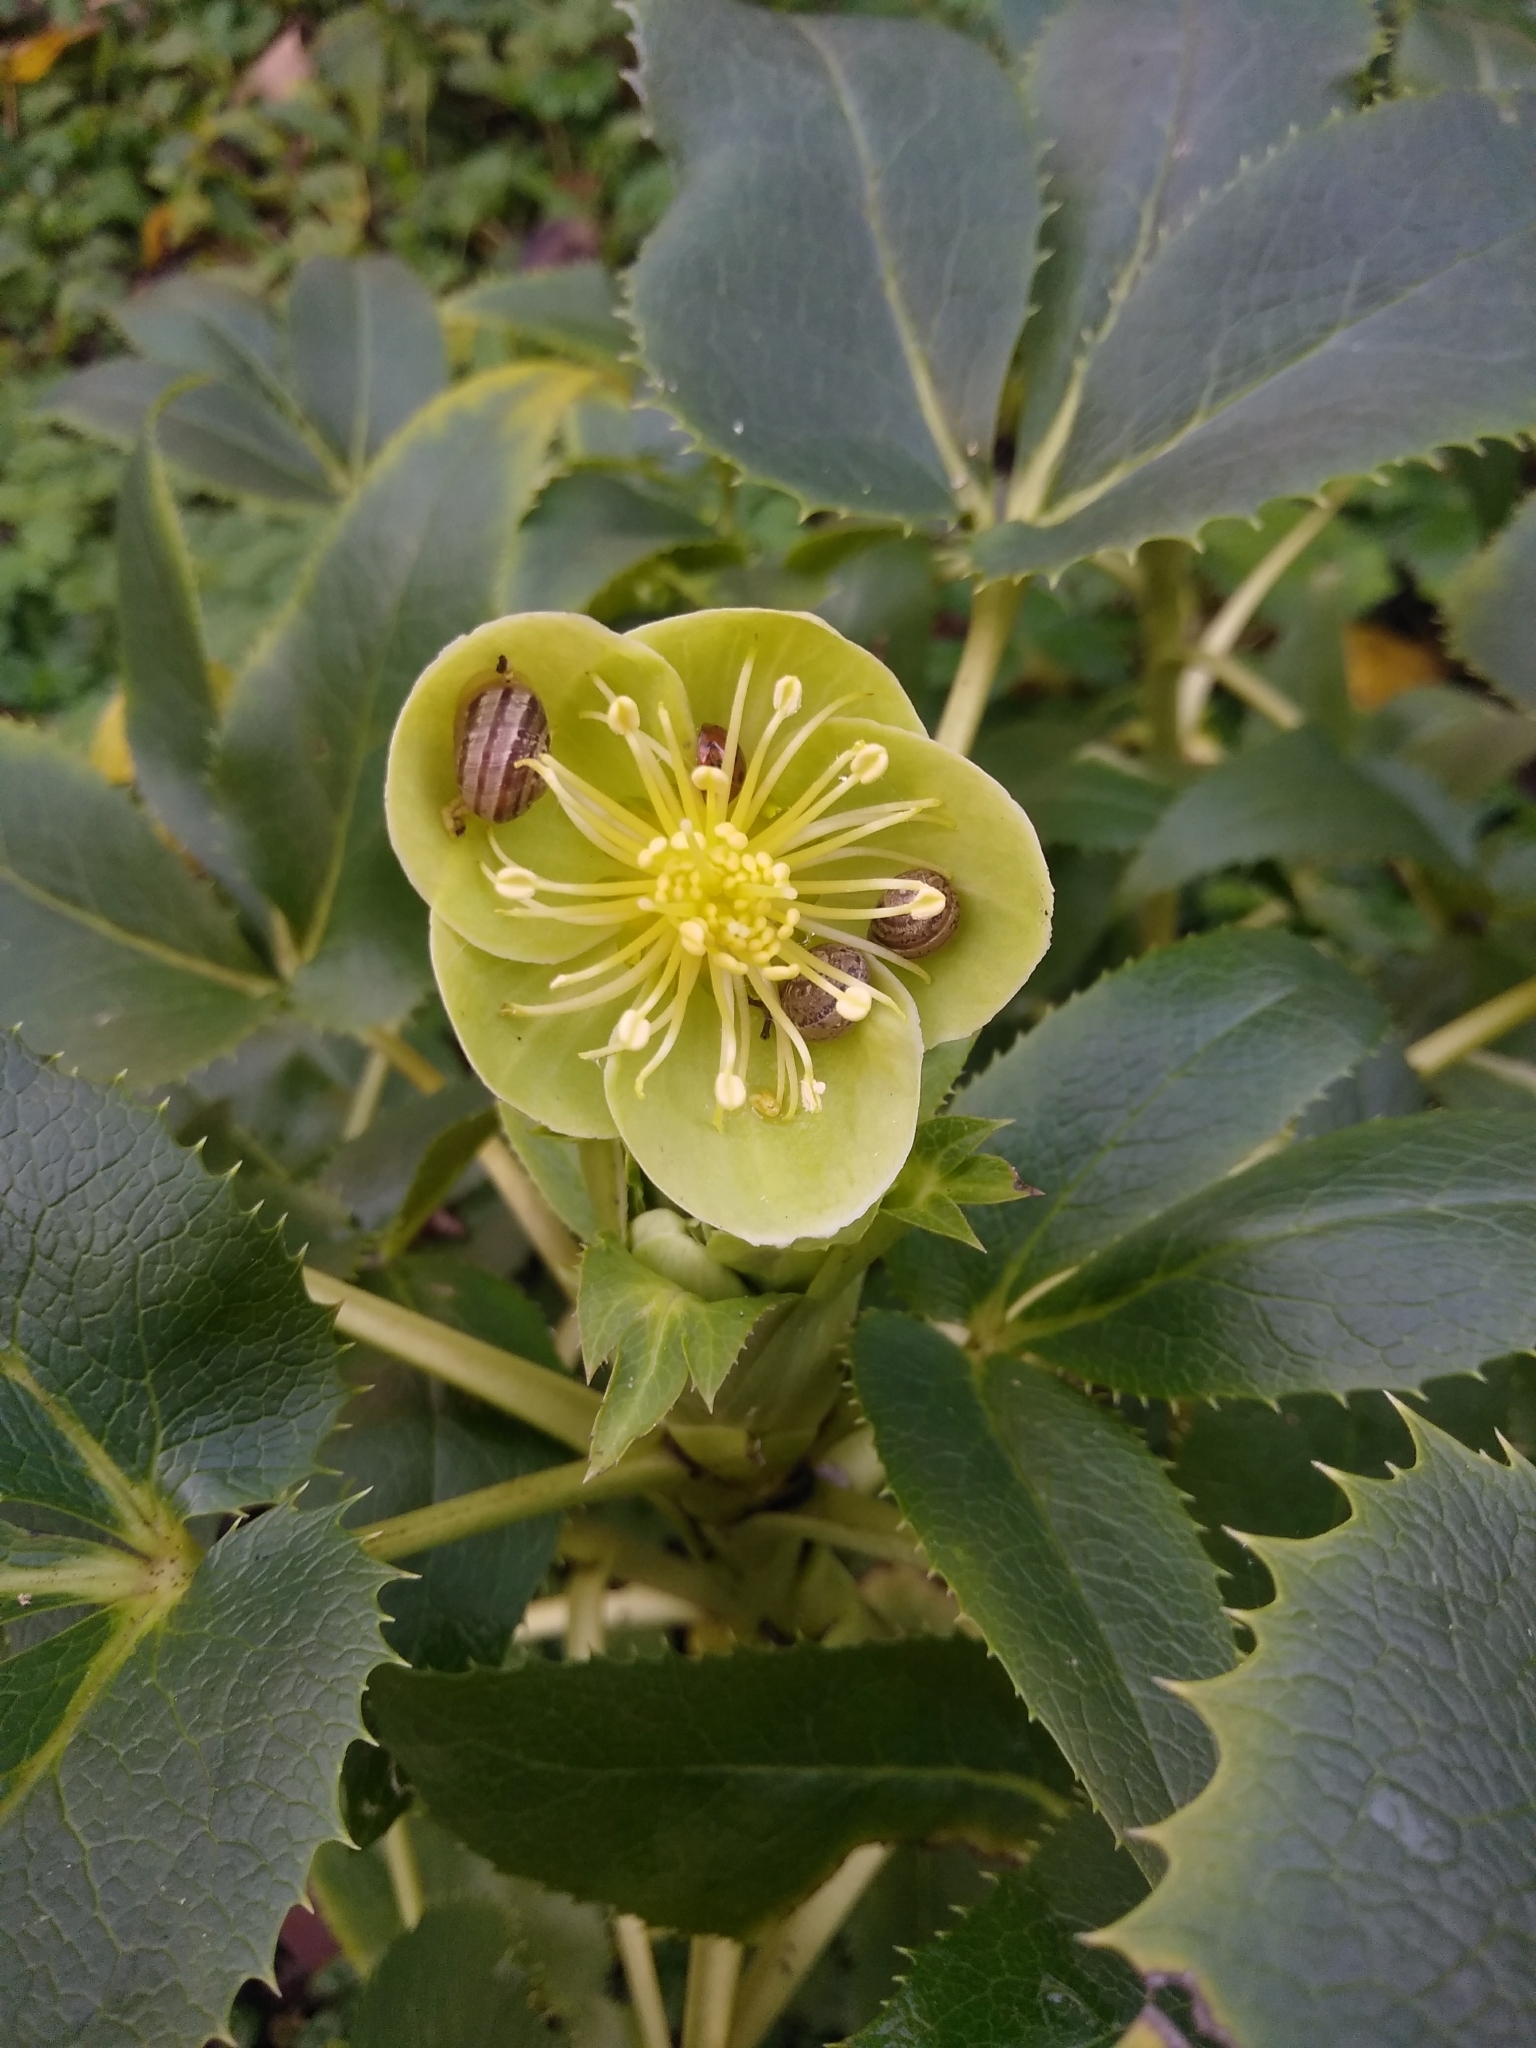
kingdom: Plantae
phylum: Tracheophyta
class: Magnoliopsida
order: Ranunculales
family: Ranunculaceae
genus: Helleborus
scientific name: Helleborus argutifolius
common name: Corsican hellebore
